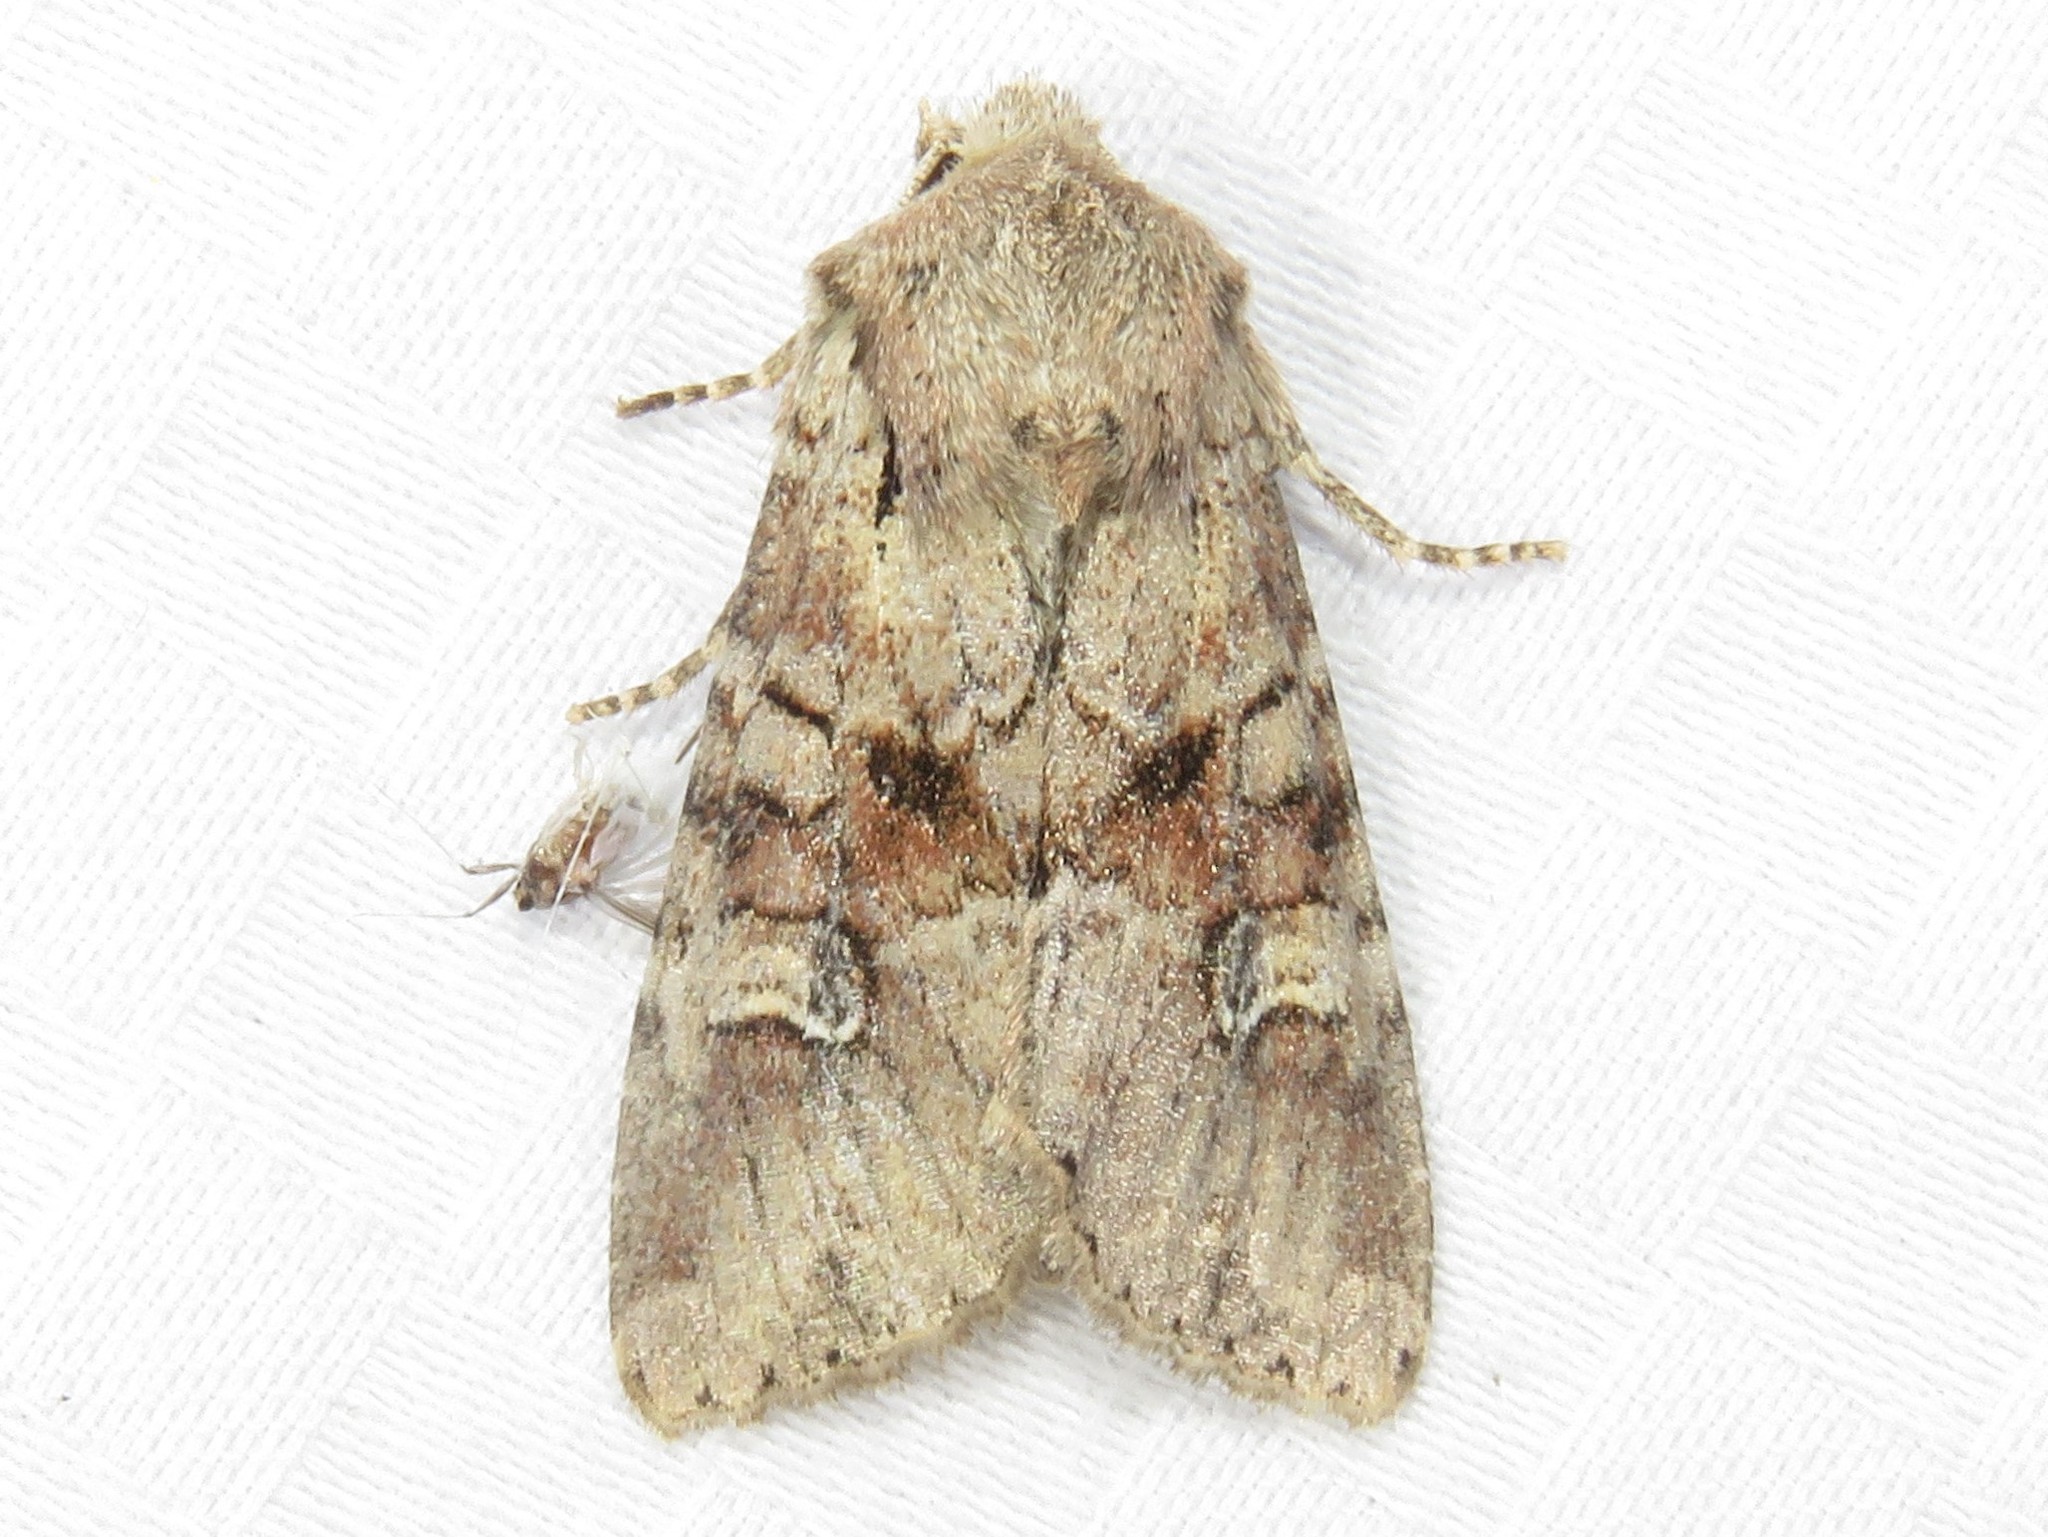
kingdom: Animalia
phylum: Arthropoda
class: Insecta
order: Lepidoptera
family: Noctuidae
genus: Apamea
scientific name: Apamea sordens
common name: Rustic shoulder-knot
